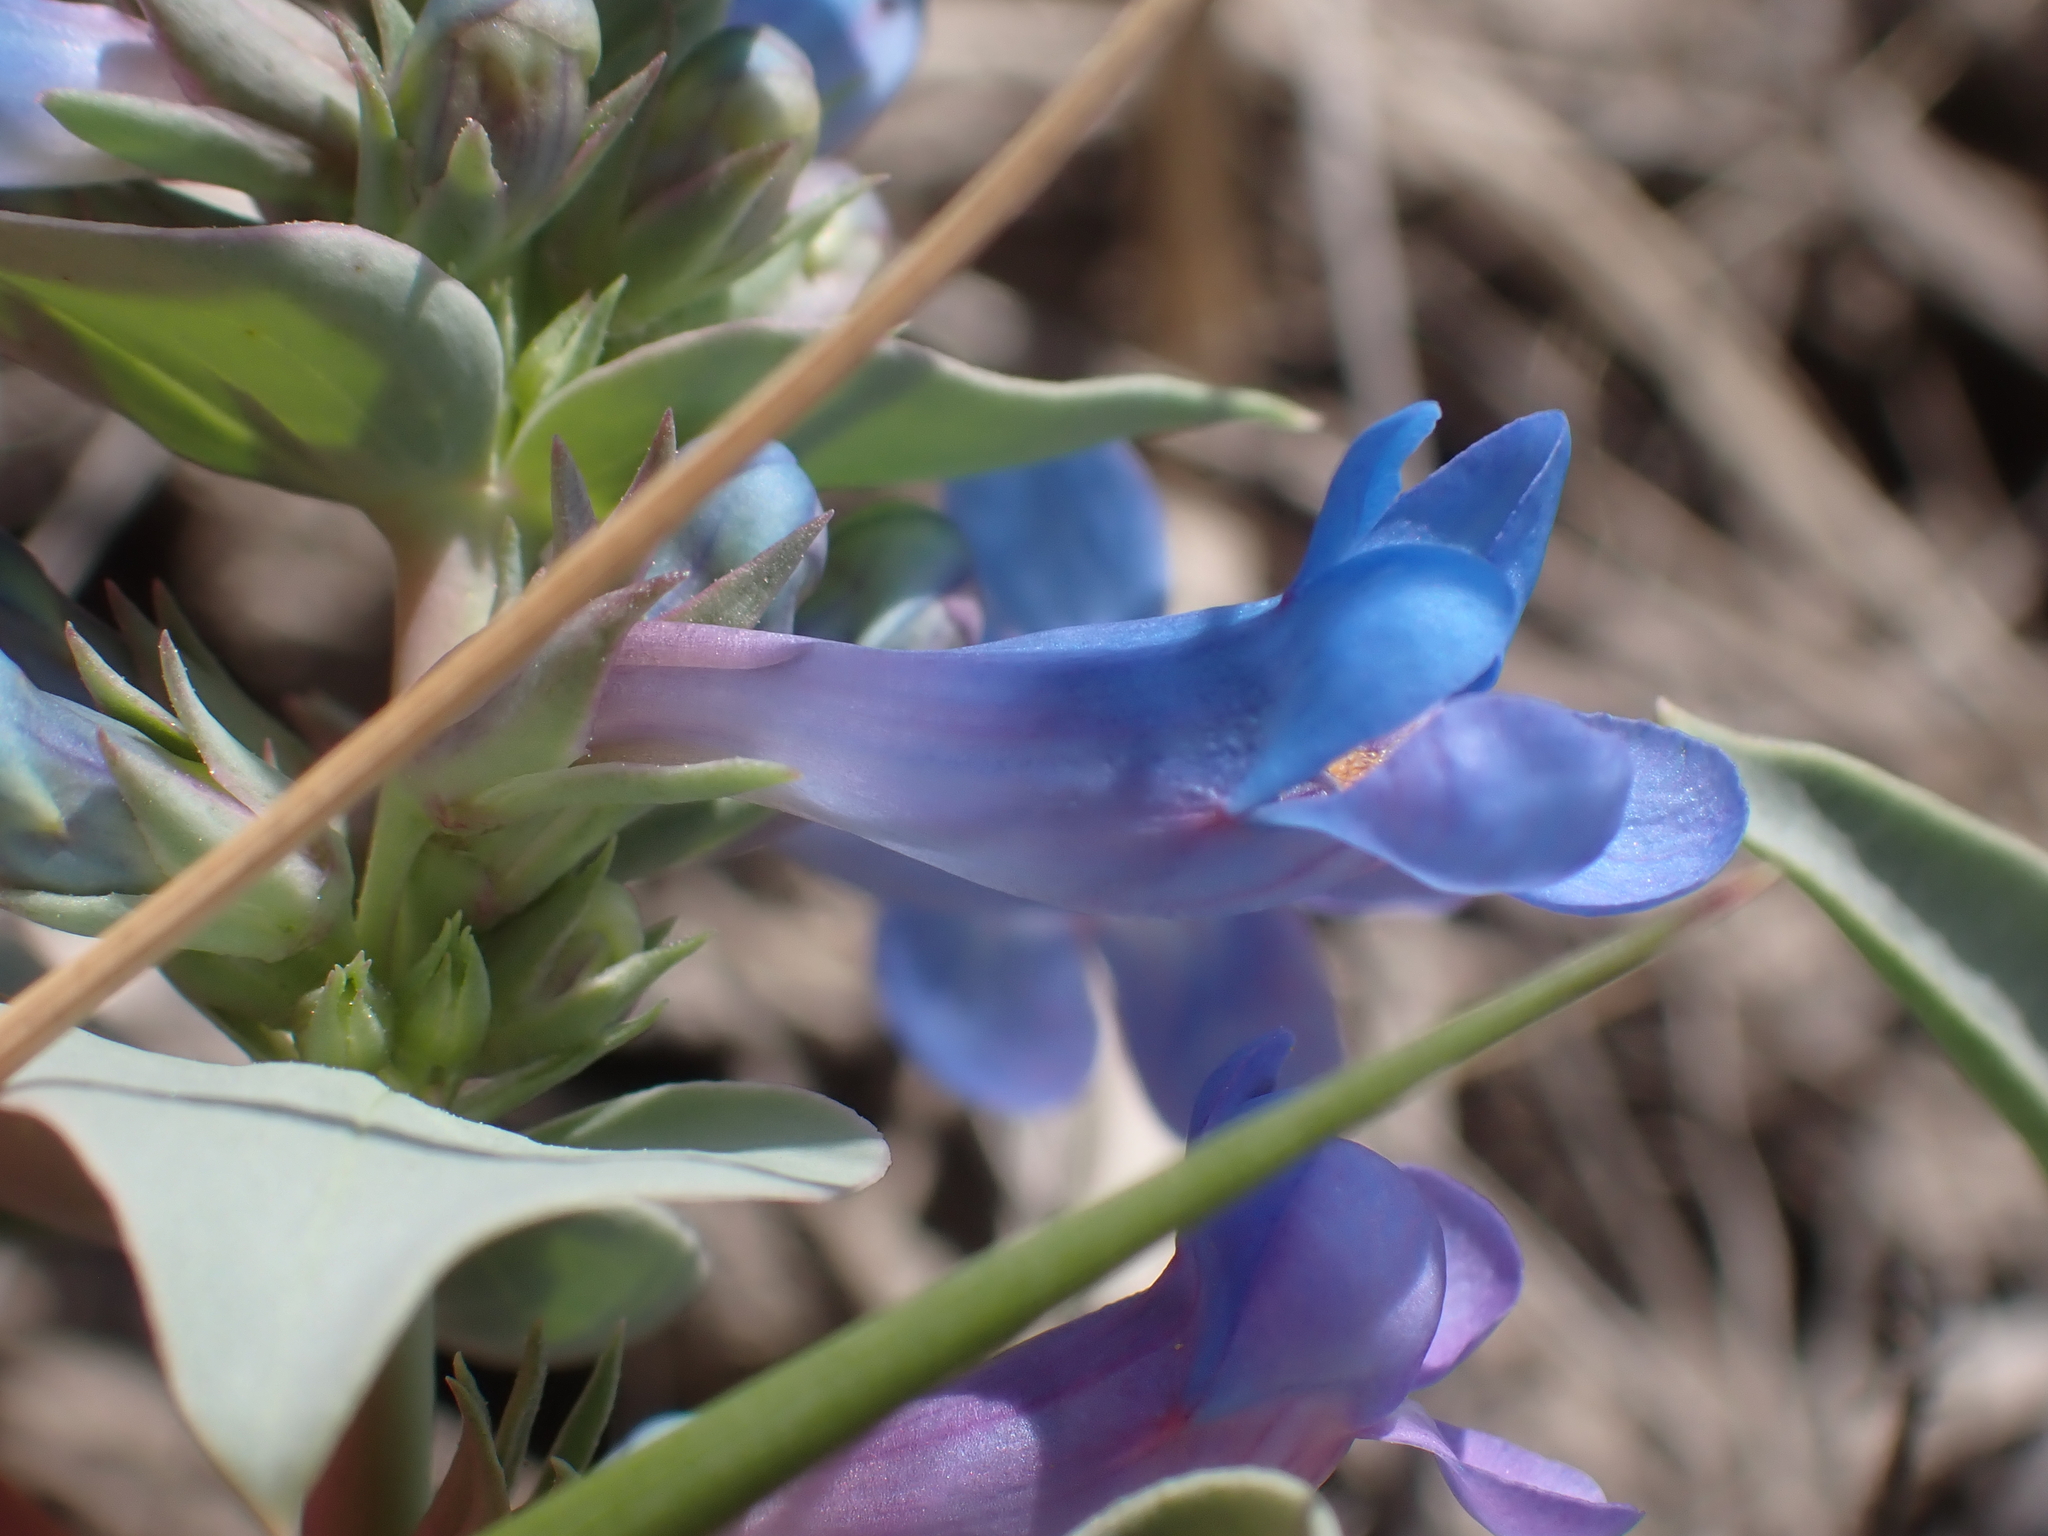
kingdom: Plantae
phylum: Tracheophyta
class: Magnoliopsida
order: Lamiales
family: Plantaginaceae
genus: Penstemon
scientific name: Penstemon nitidus
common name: Shining penstemon
